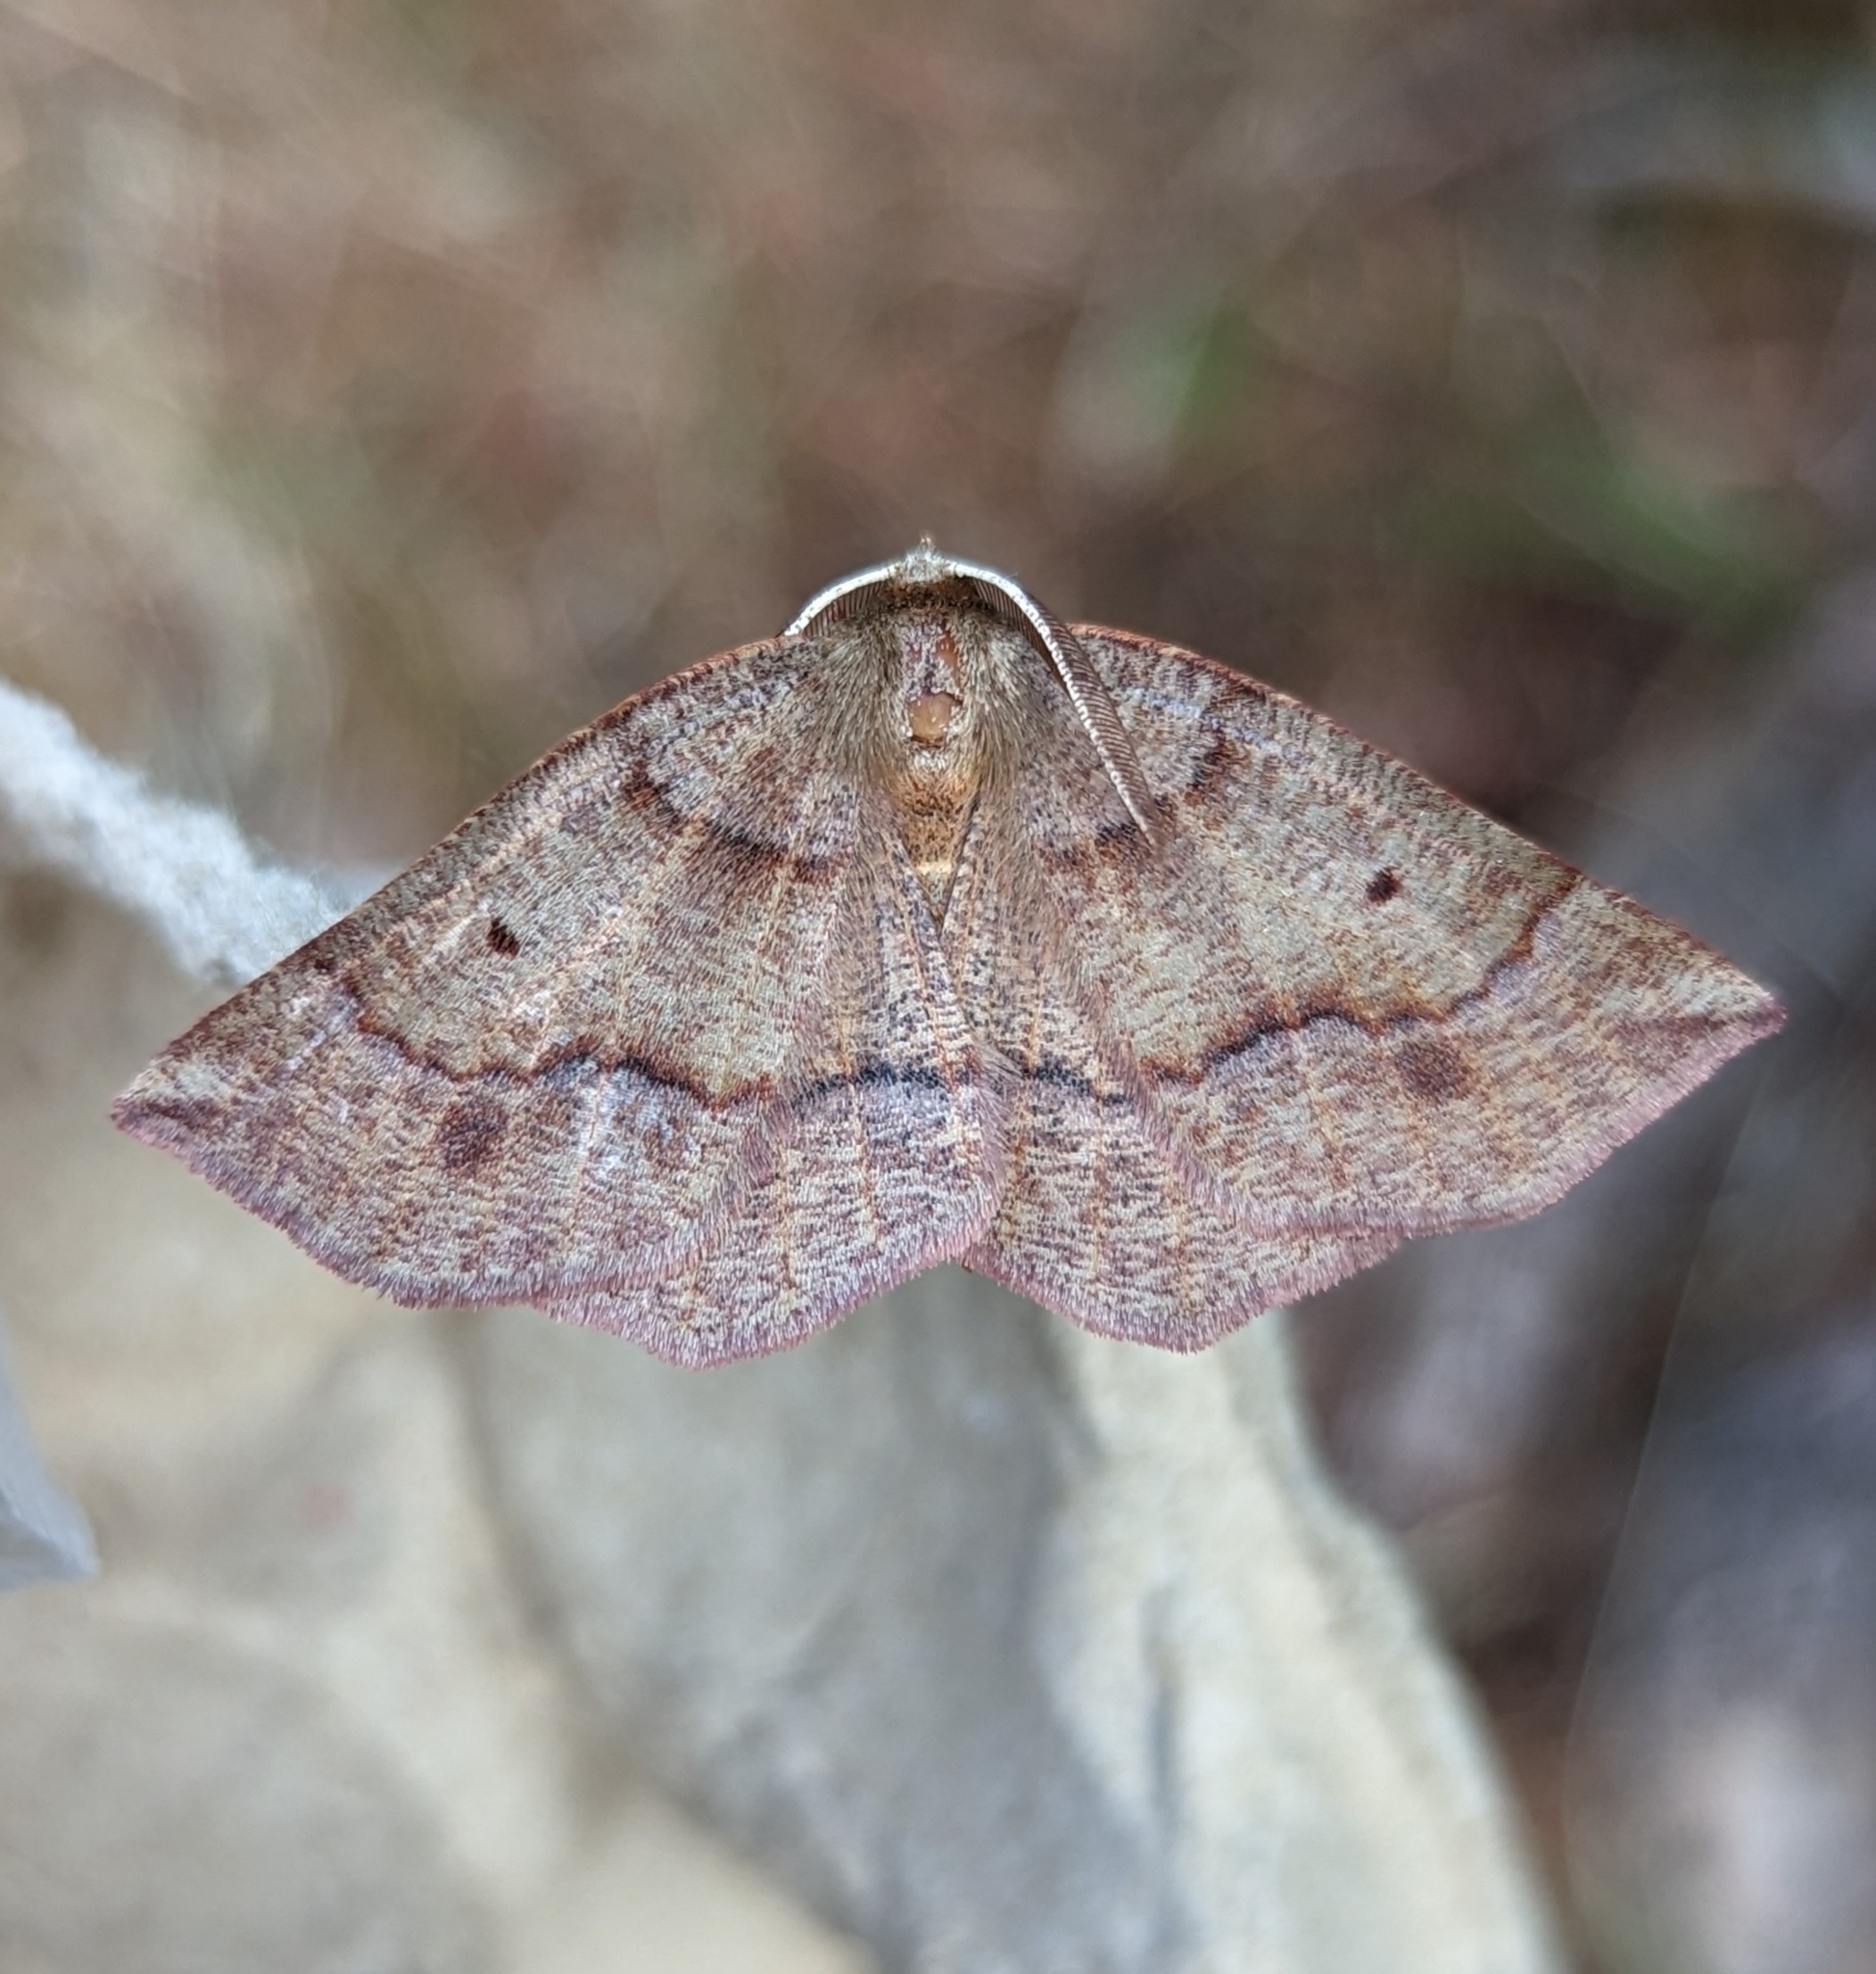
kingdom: Animalia
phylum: Arthropoda
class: Insecta
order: Lepidoptera
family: Geometridae
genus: Metarranthis
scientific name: Metarranthis duaria
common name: Ruddy metarranthis moth
